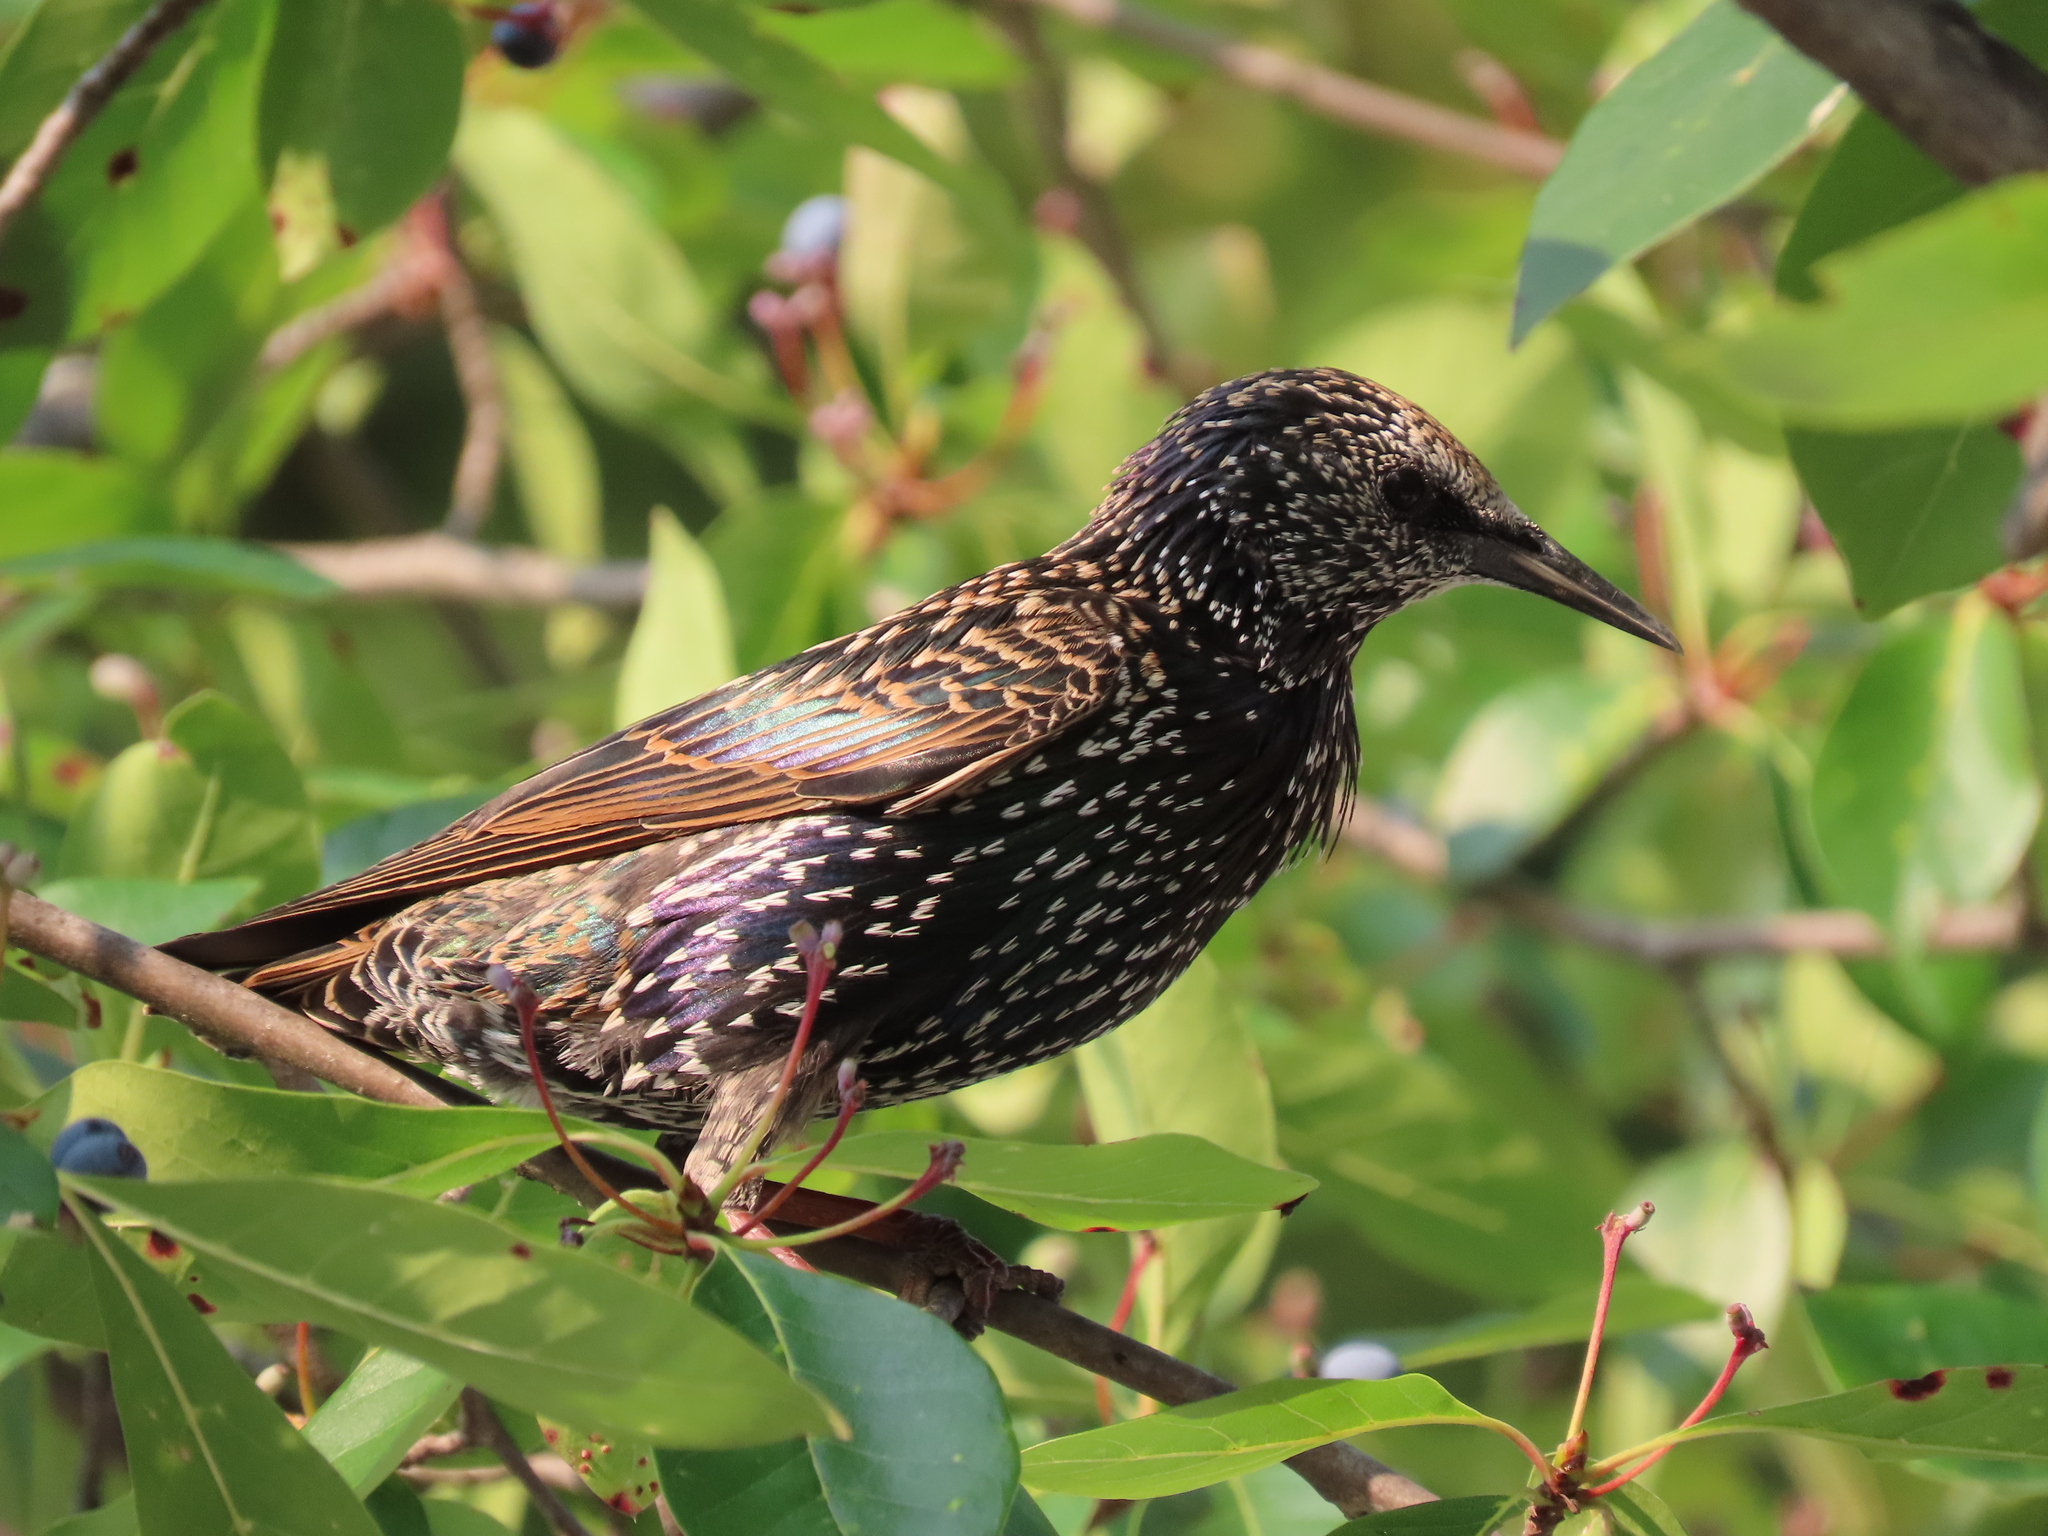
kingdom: Animalia
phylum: Chordata
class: Aves
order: Passeriformes
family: Sturnidae
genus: Sturnus
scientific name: Sturnus vulgaris
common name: Common starling
